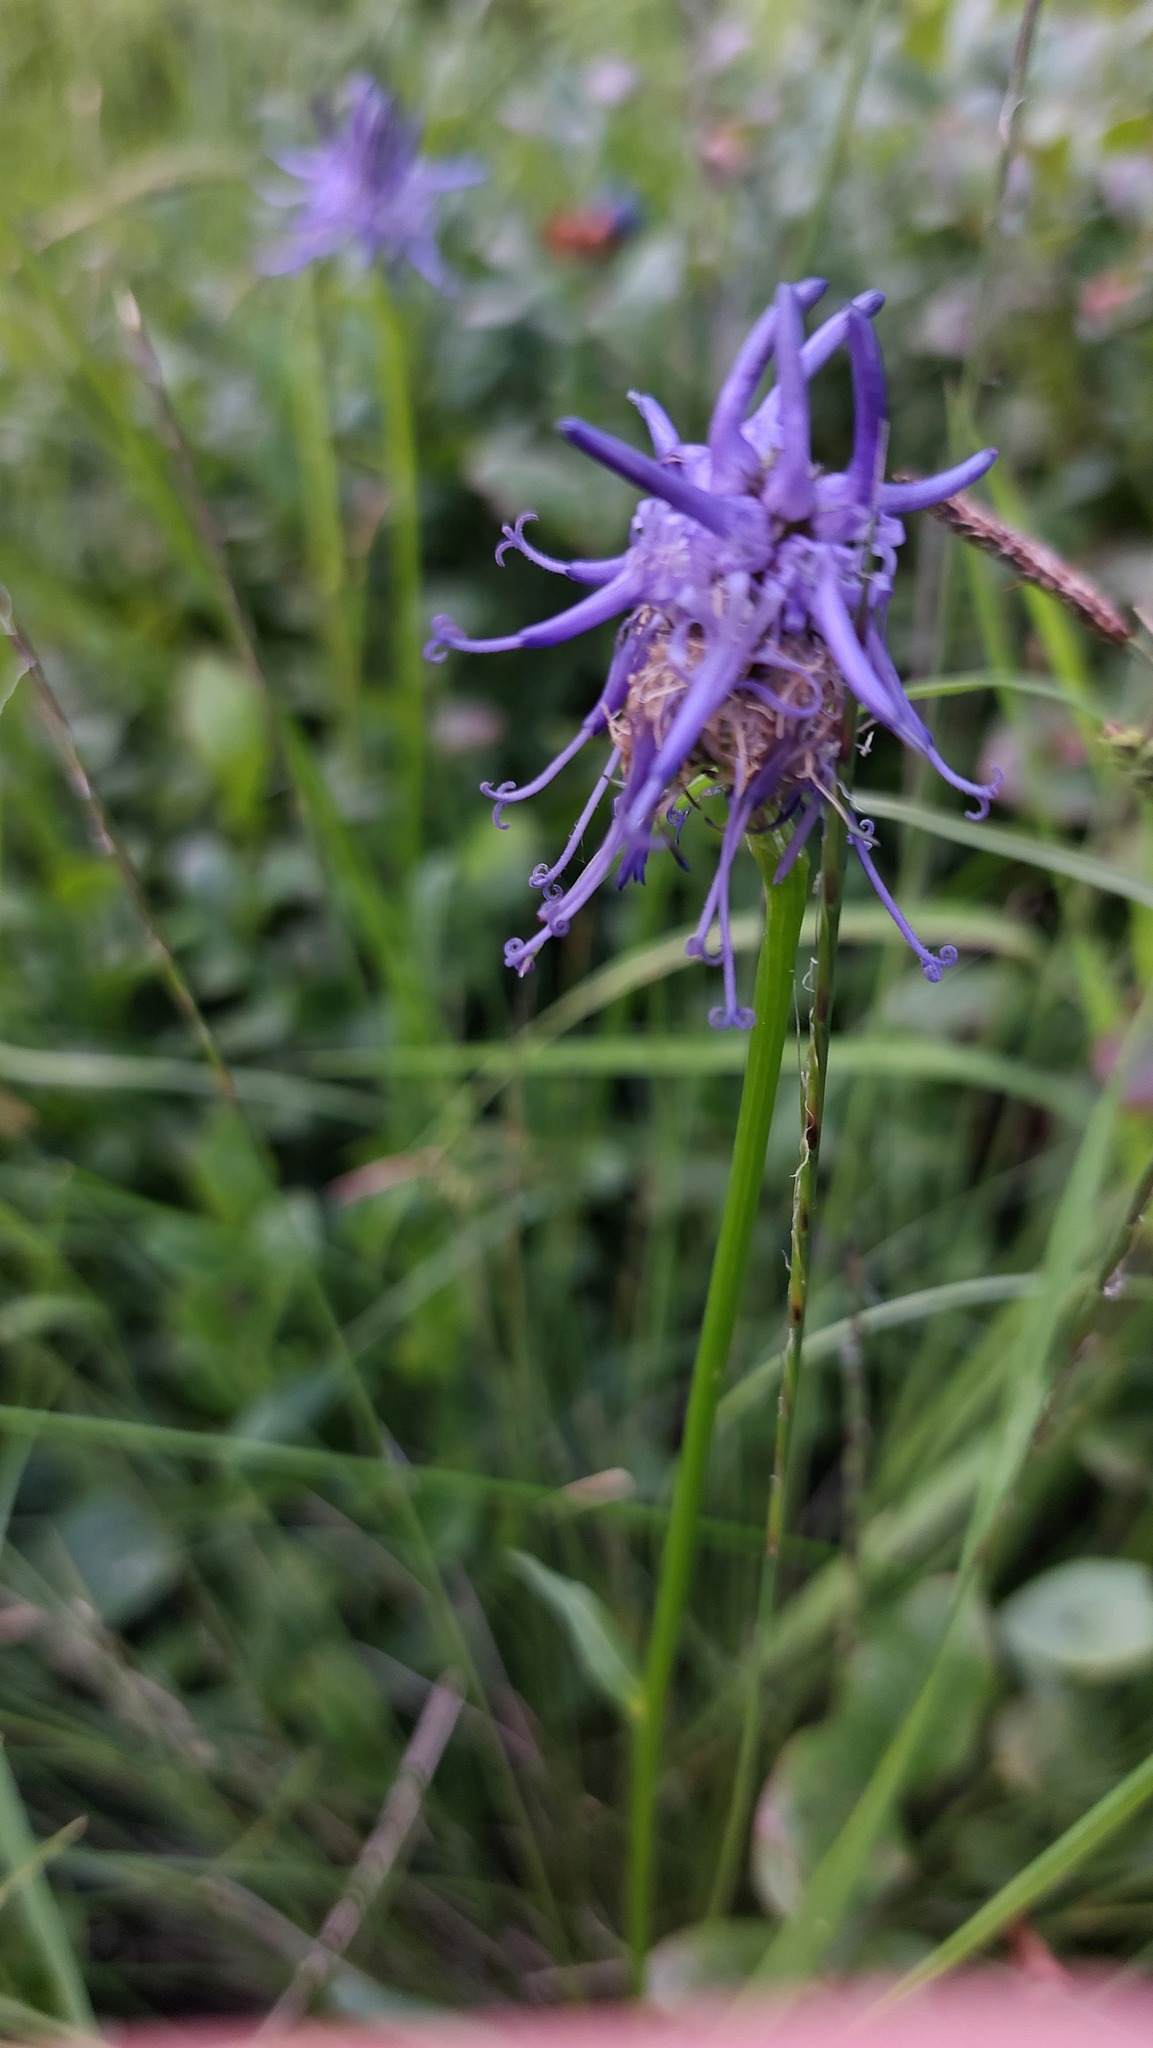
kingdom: Plantae
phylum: Tracheophyta
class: Magnoliopsida
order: Asterales
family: Campanulaceae
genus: Phyteuma
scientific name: Phyteuma betonicifolium
